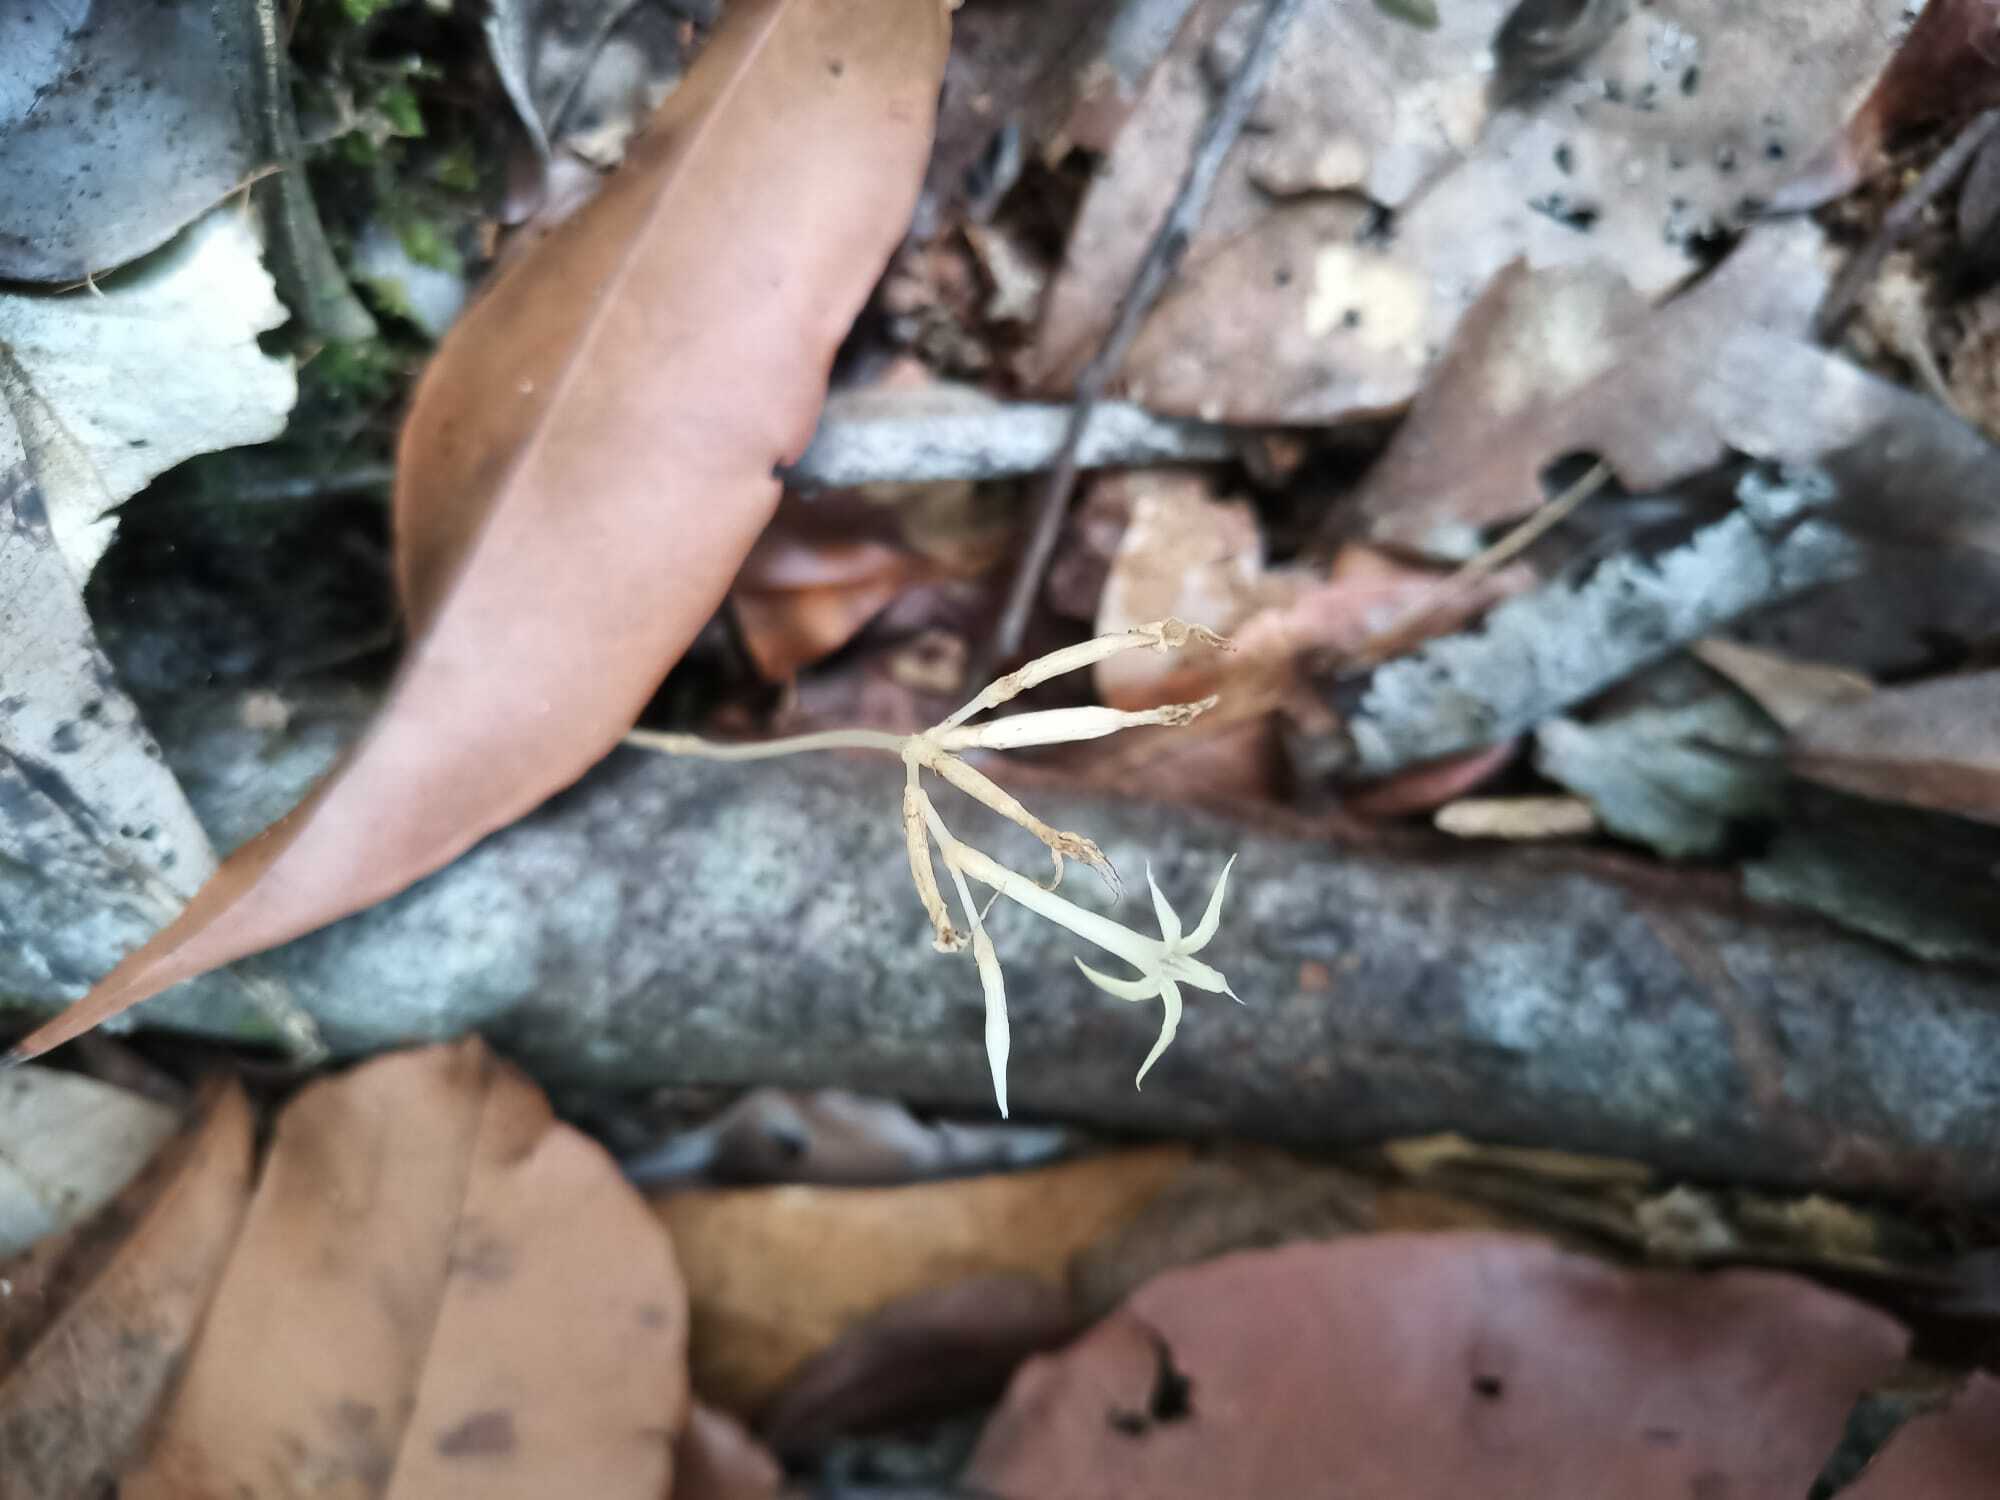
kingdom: Plantae
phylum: Tracheophyta
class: Magnoliopsida
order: Gentianales
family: Gentianaceae
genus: Voyria
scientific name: Voyria corymbosa
